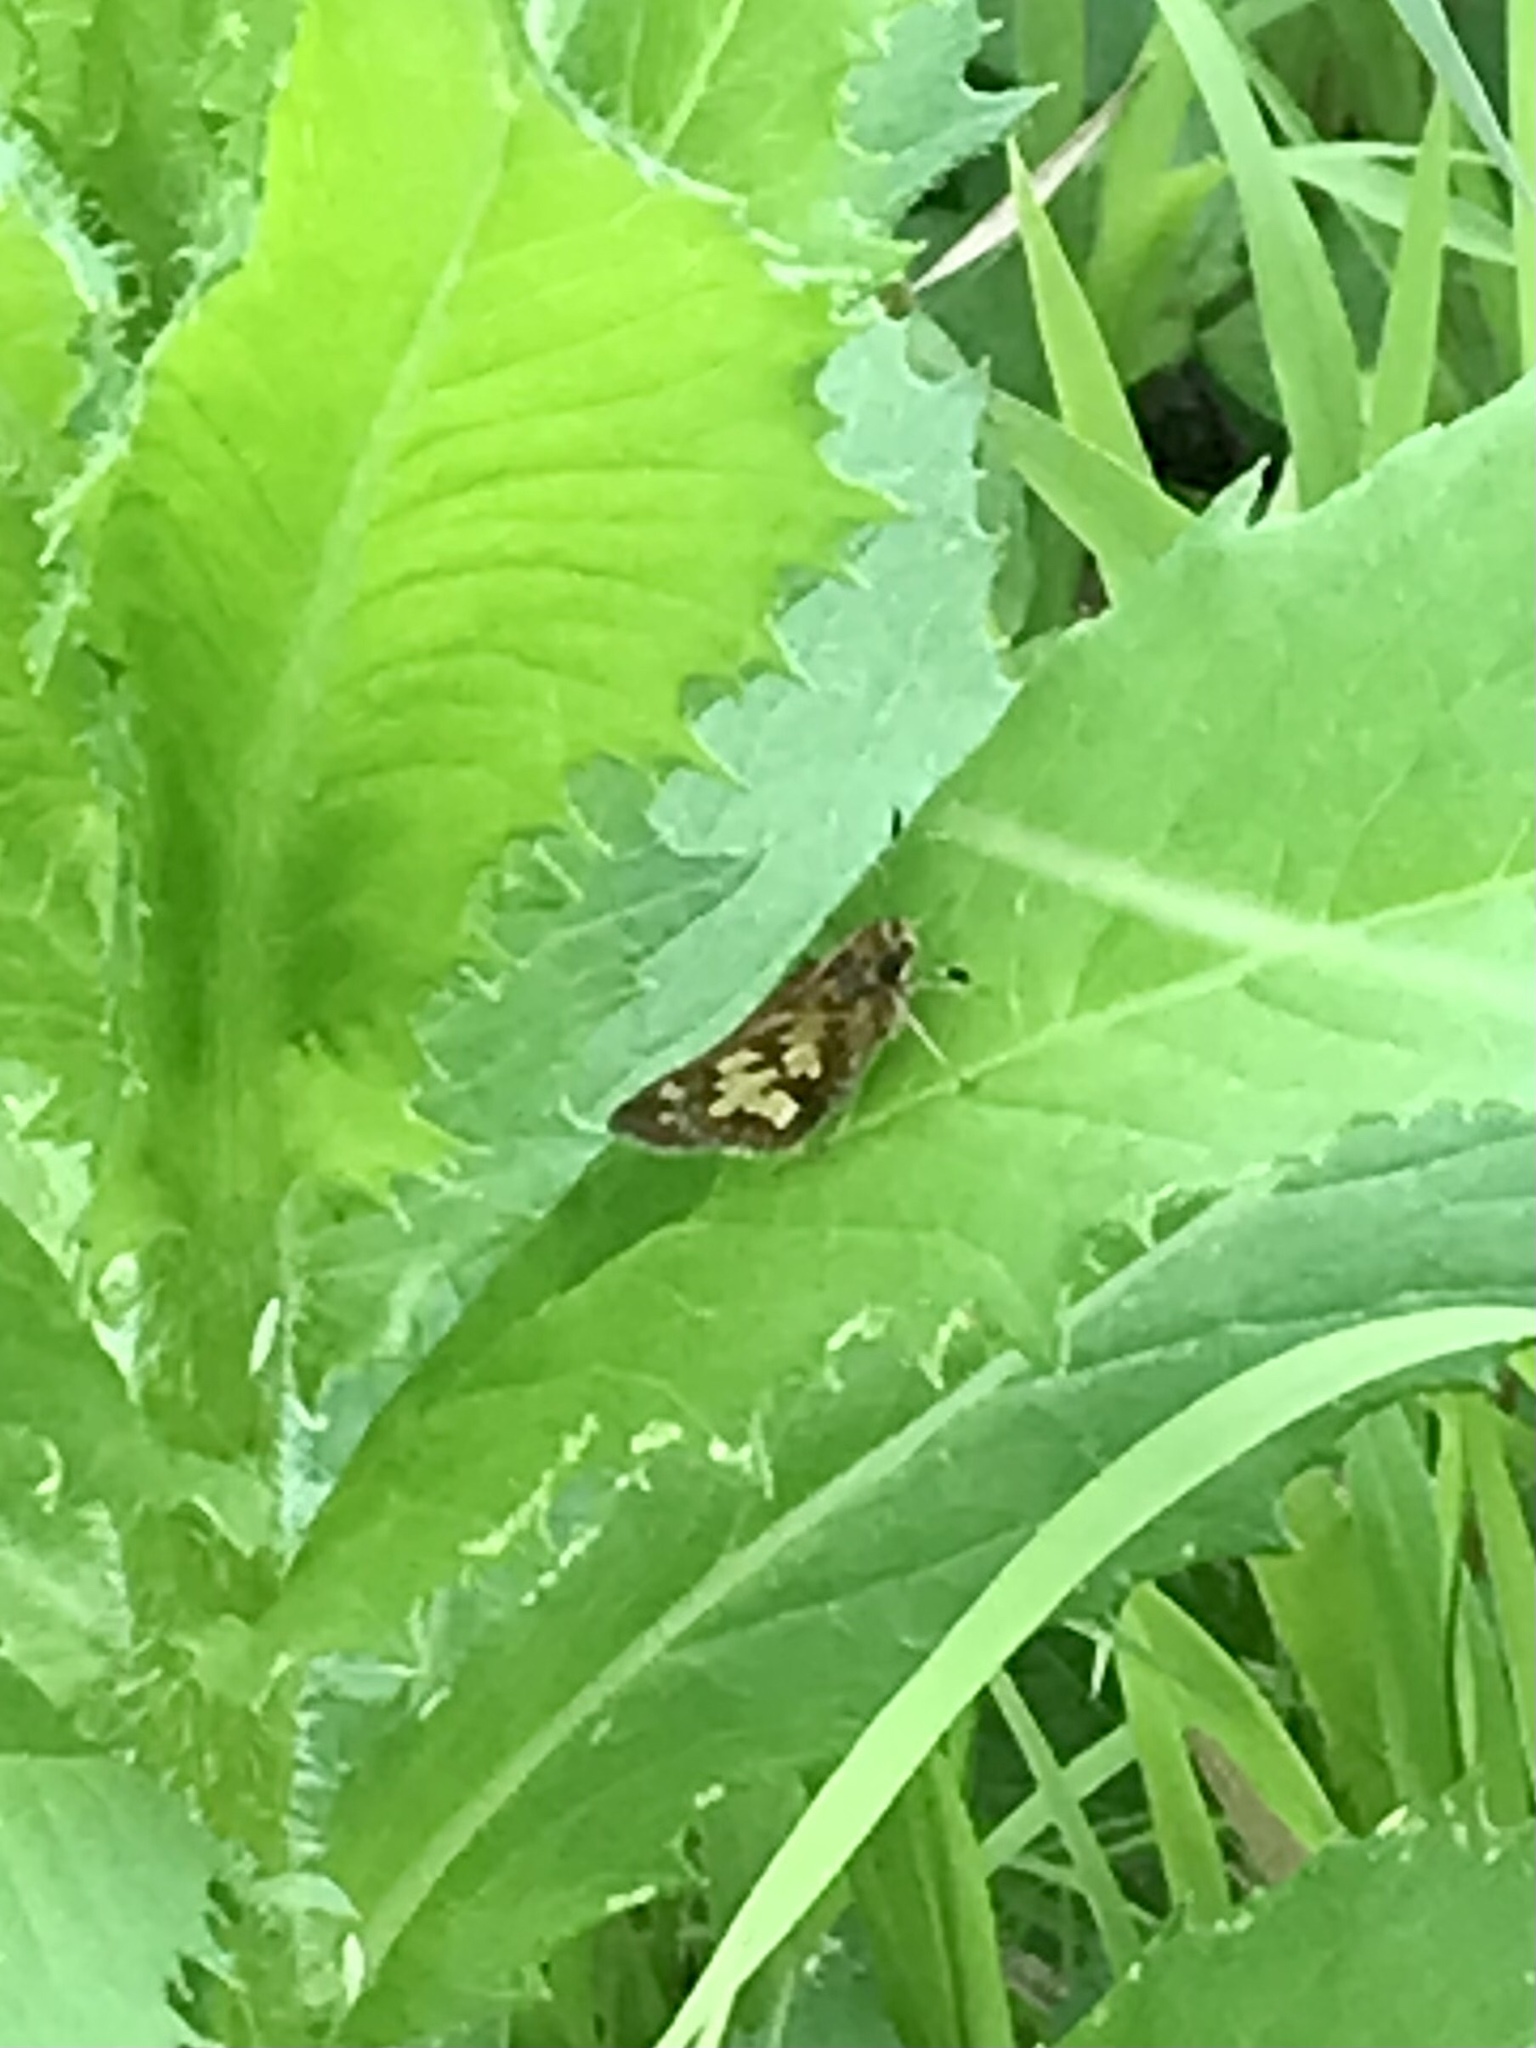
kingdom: Animalia
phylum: Arthropoda
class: Insecta
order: Lepidoptera
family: Hesperiidae
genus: Polites
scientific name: Polites coras
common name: Peck's skipper
